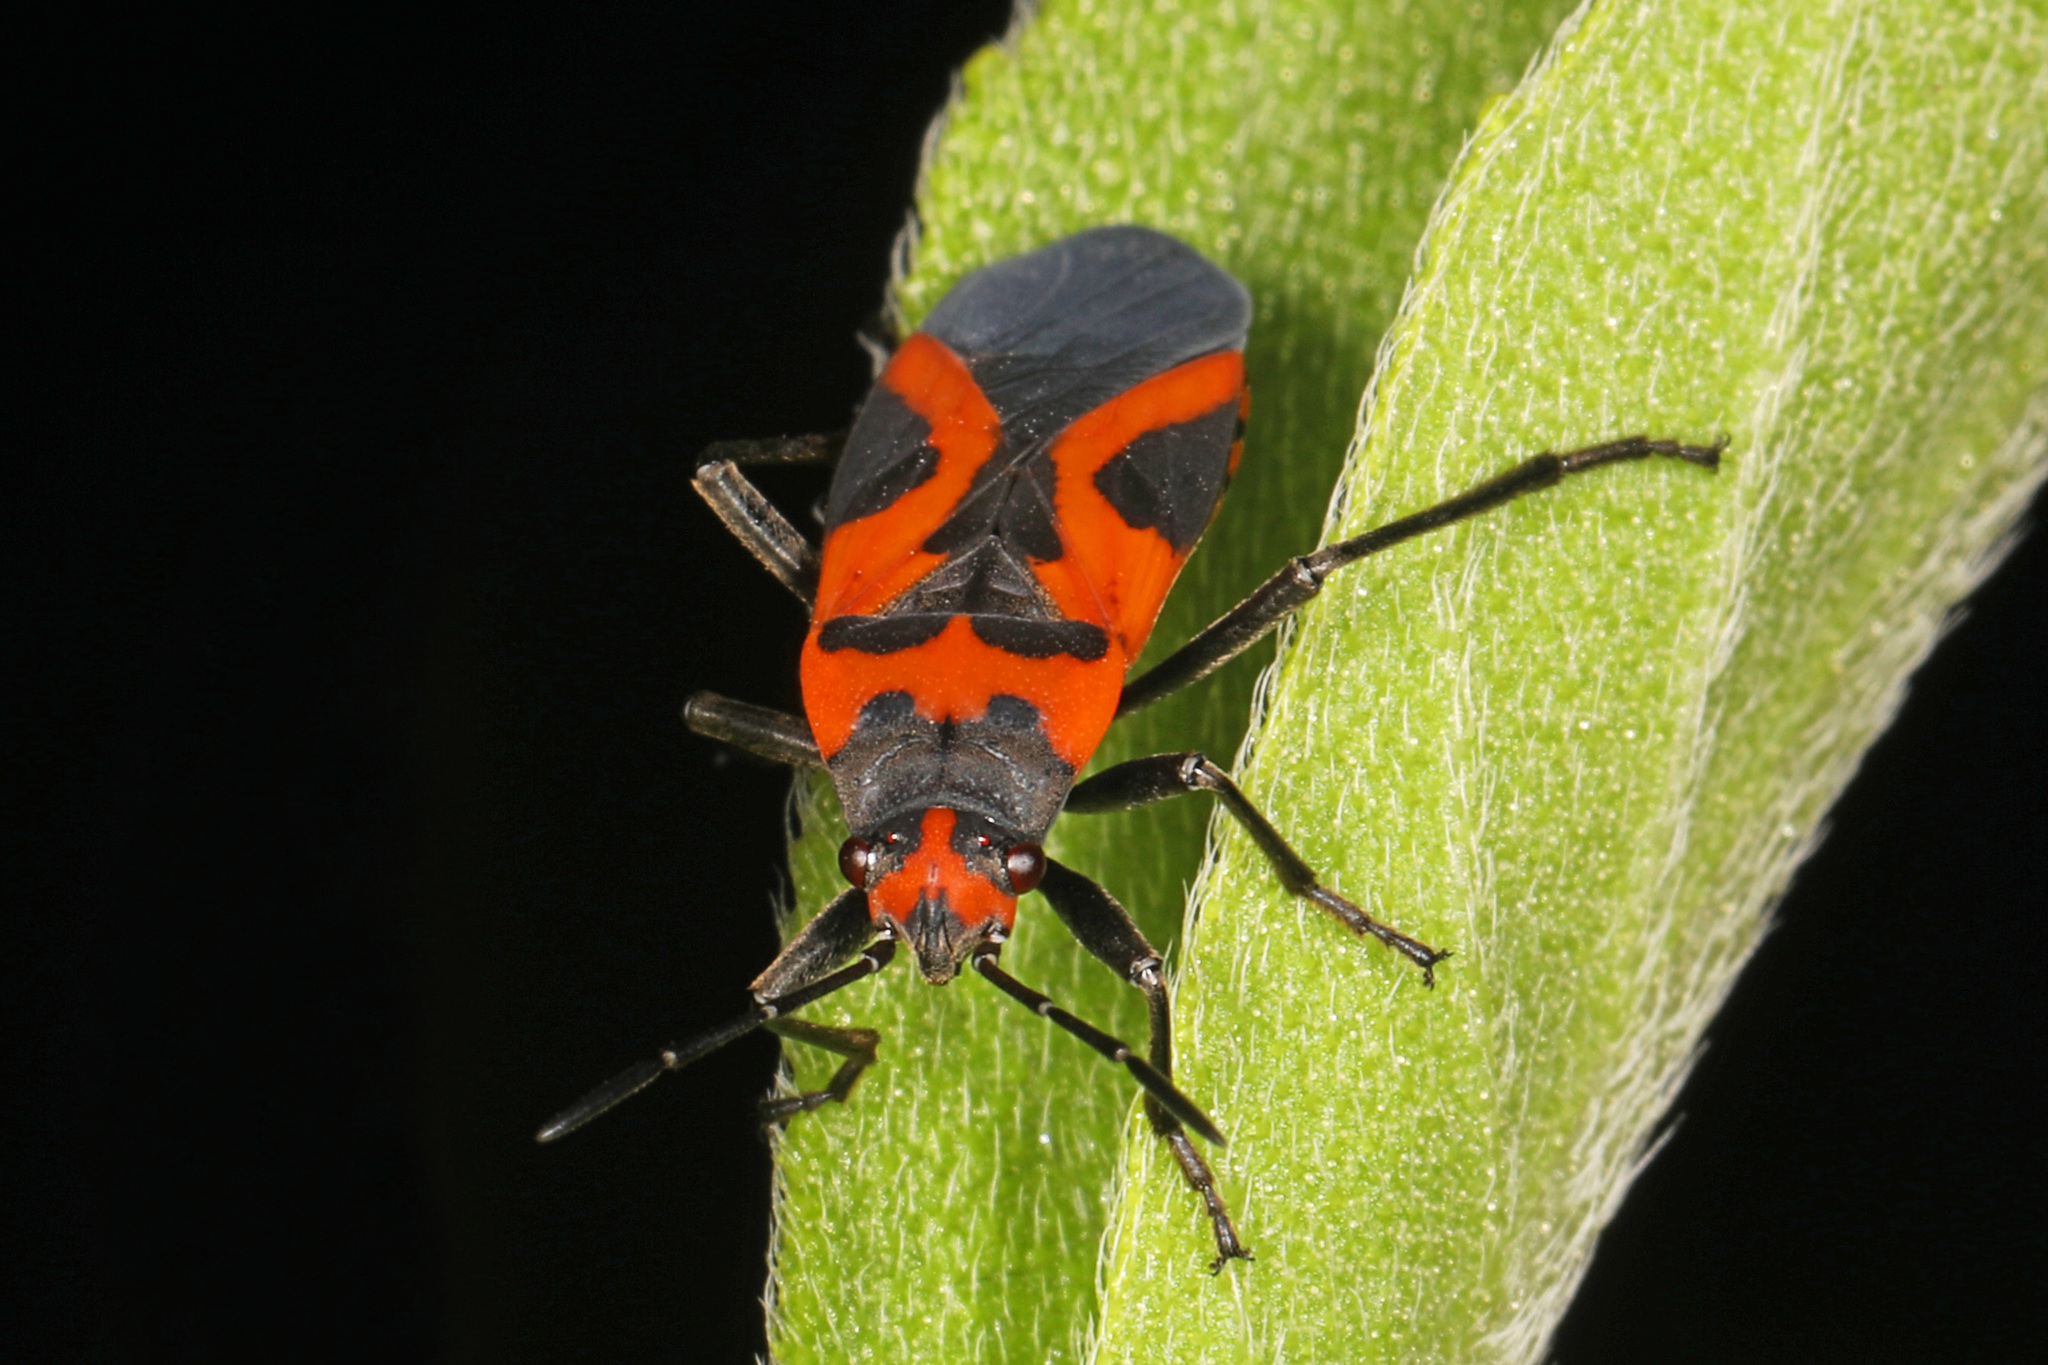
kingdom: Animalia
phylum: Arthropoda
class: Insecta
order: Hemiptera
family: Lygaeidae
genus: Lygaeus
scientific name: Lygaeus turcicus
